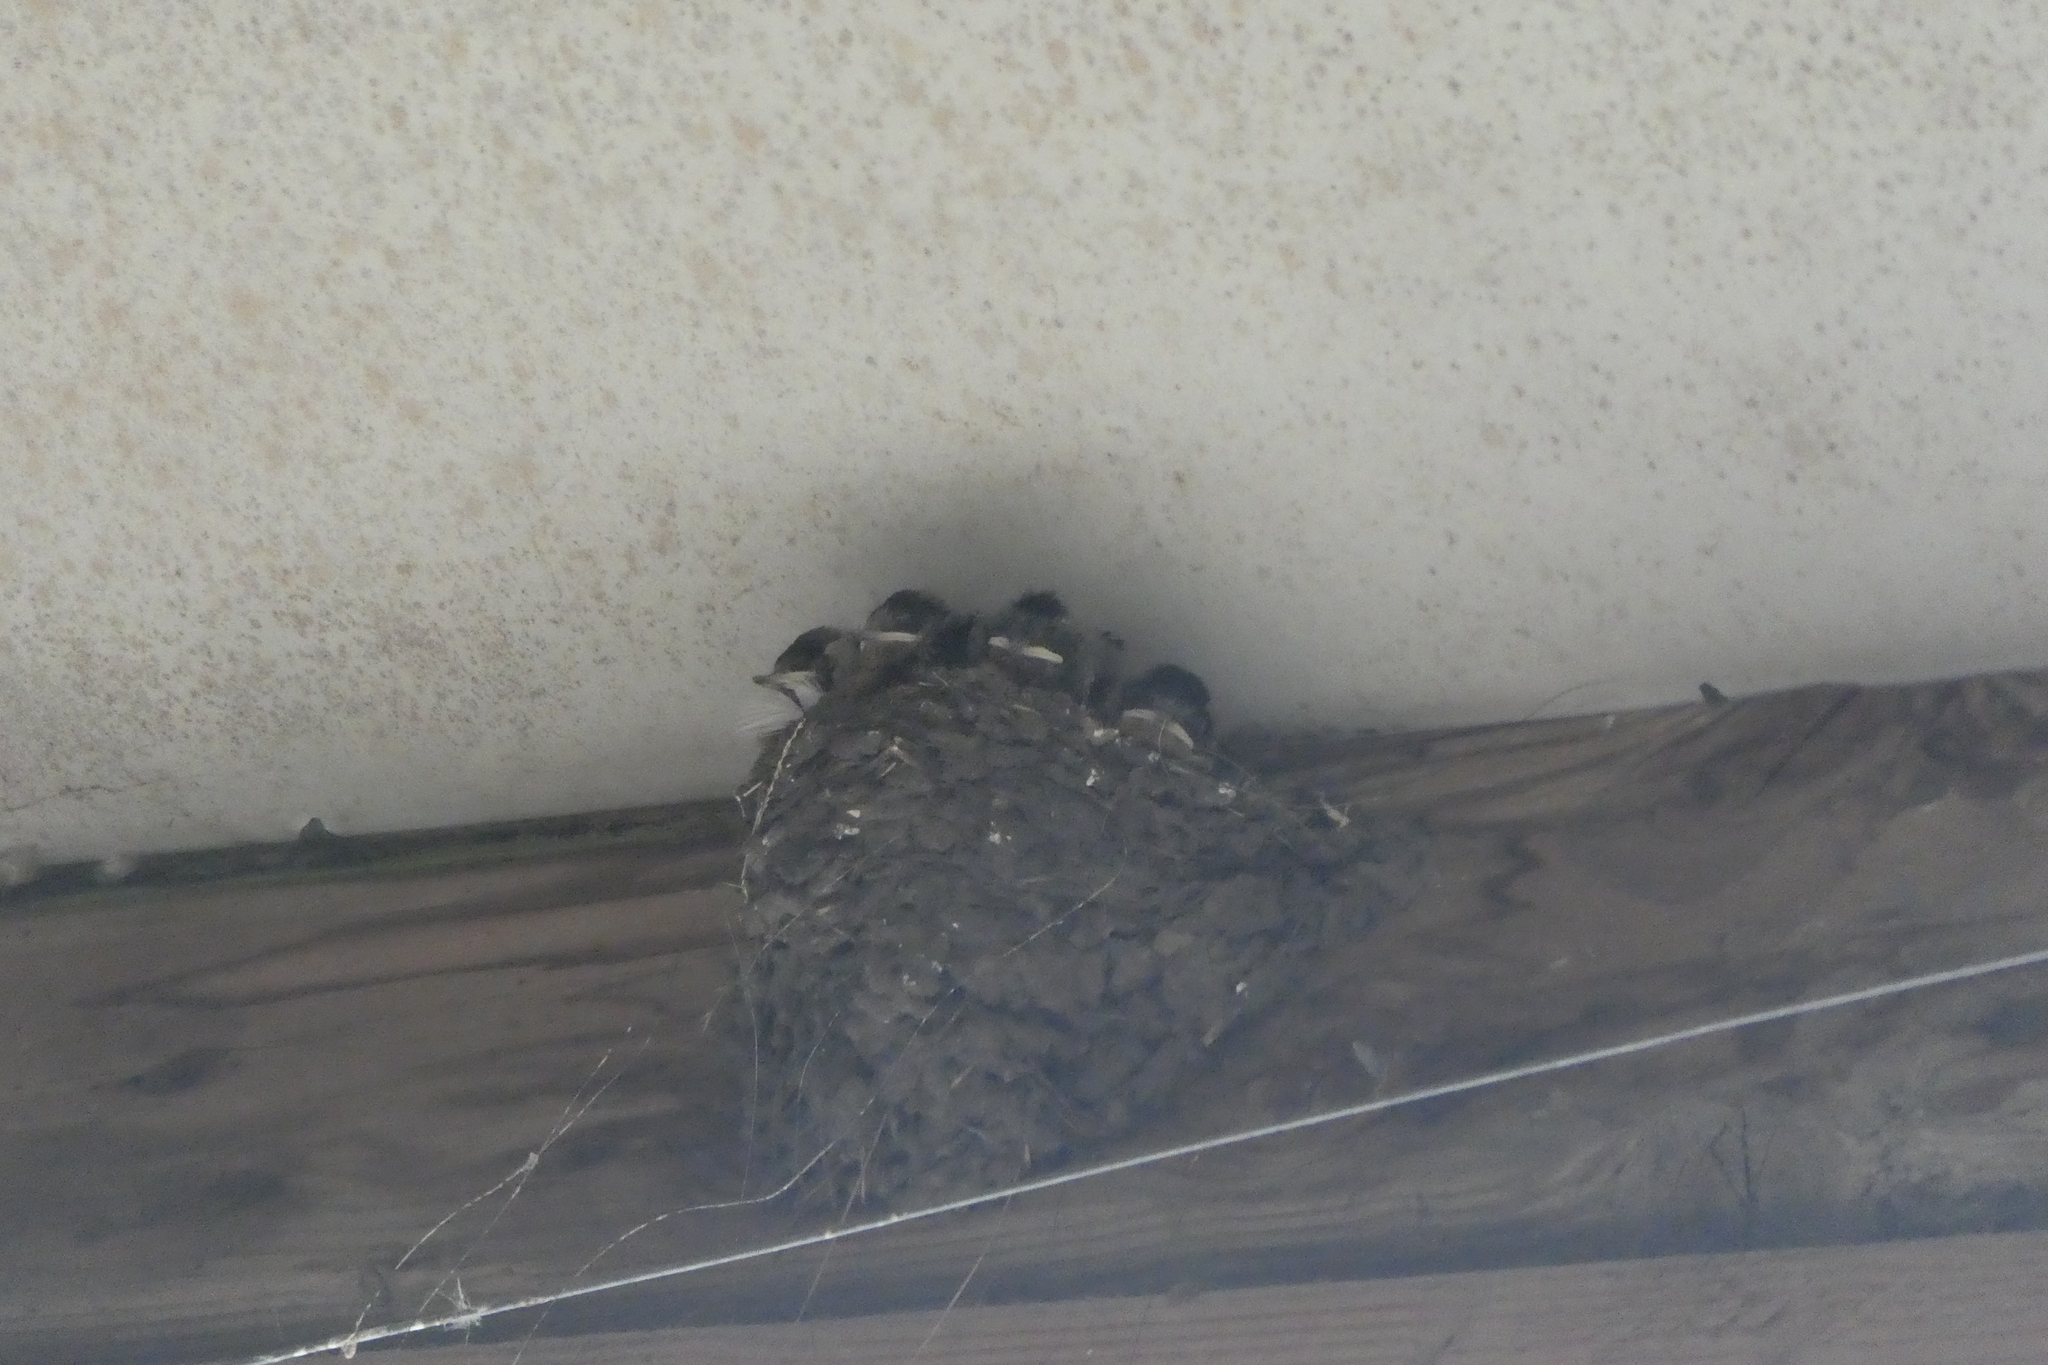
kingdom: Animalia
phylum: Chordata
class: Aves
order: Passeriformes
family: Hirundinidae
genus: Hirundo
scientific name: Hirundo rustica
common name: Barn swallow
